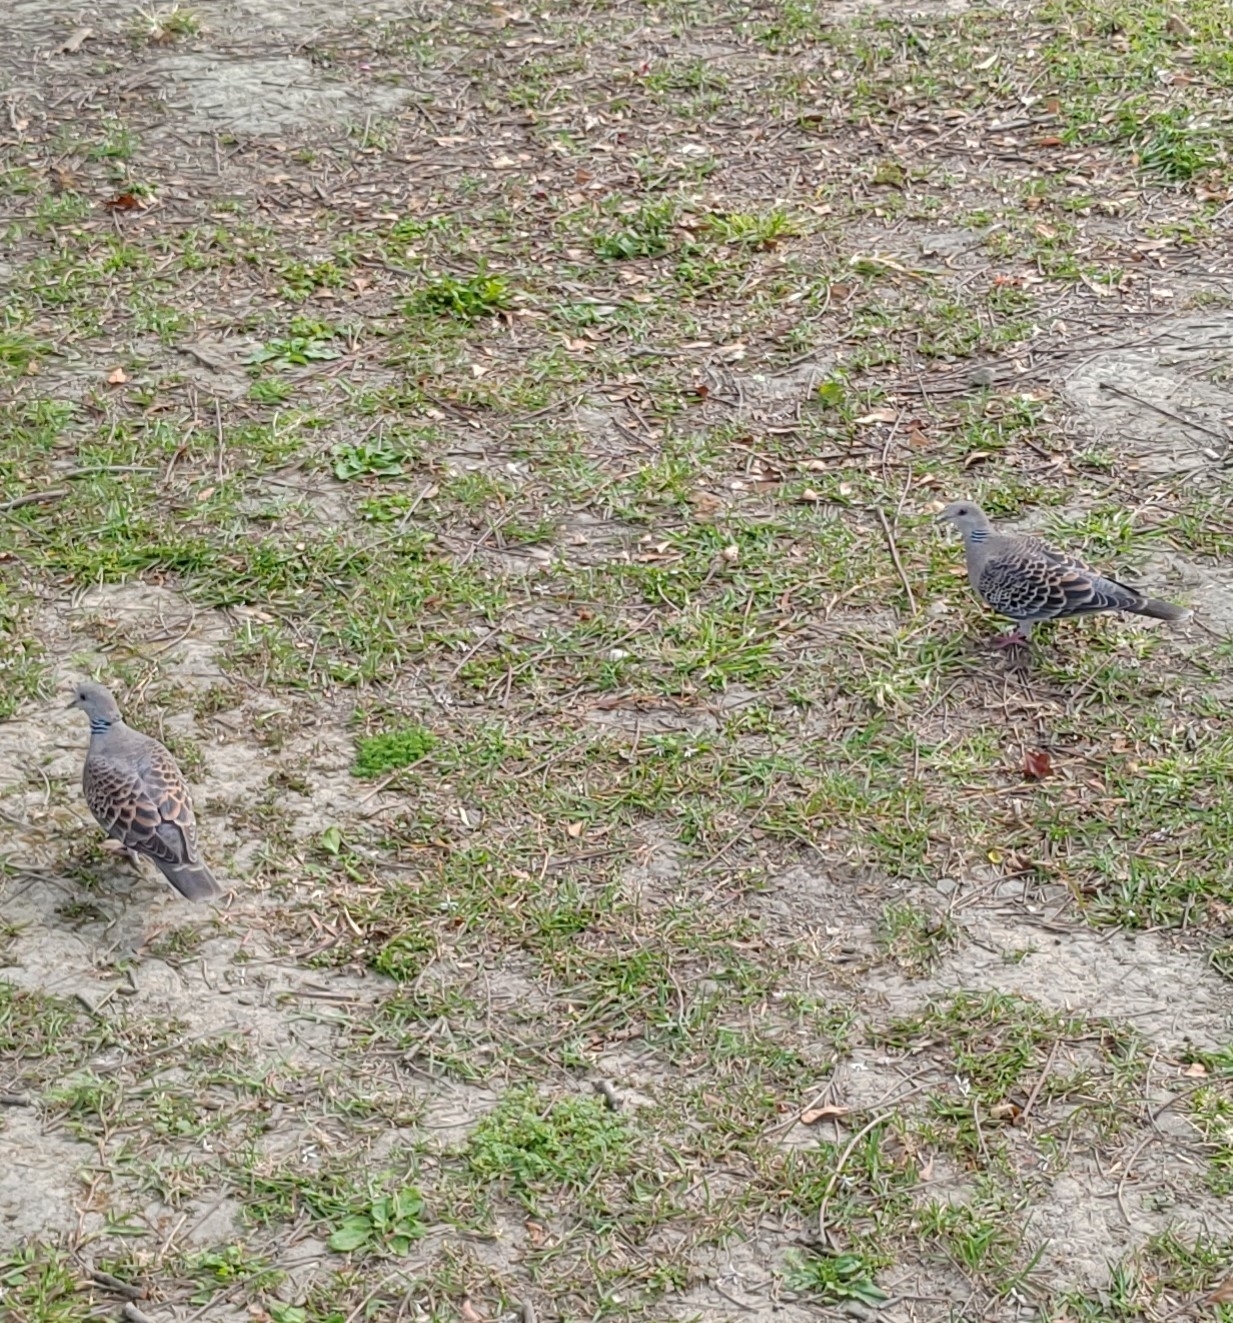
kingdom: Animalia
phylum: Chordata
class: Aves
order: Columbiformes
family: Columbidae
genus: Streptopelia
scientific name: Streptopelia orientalis
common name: Oriental turtle dove
